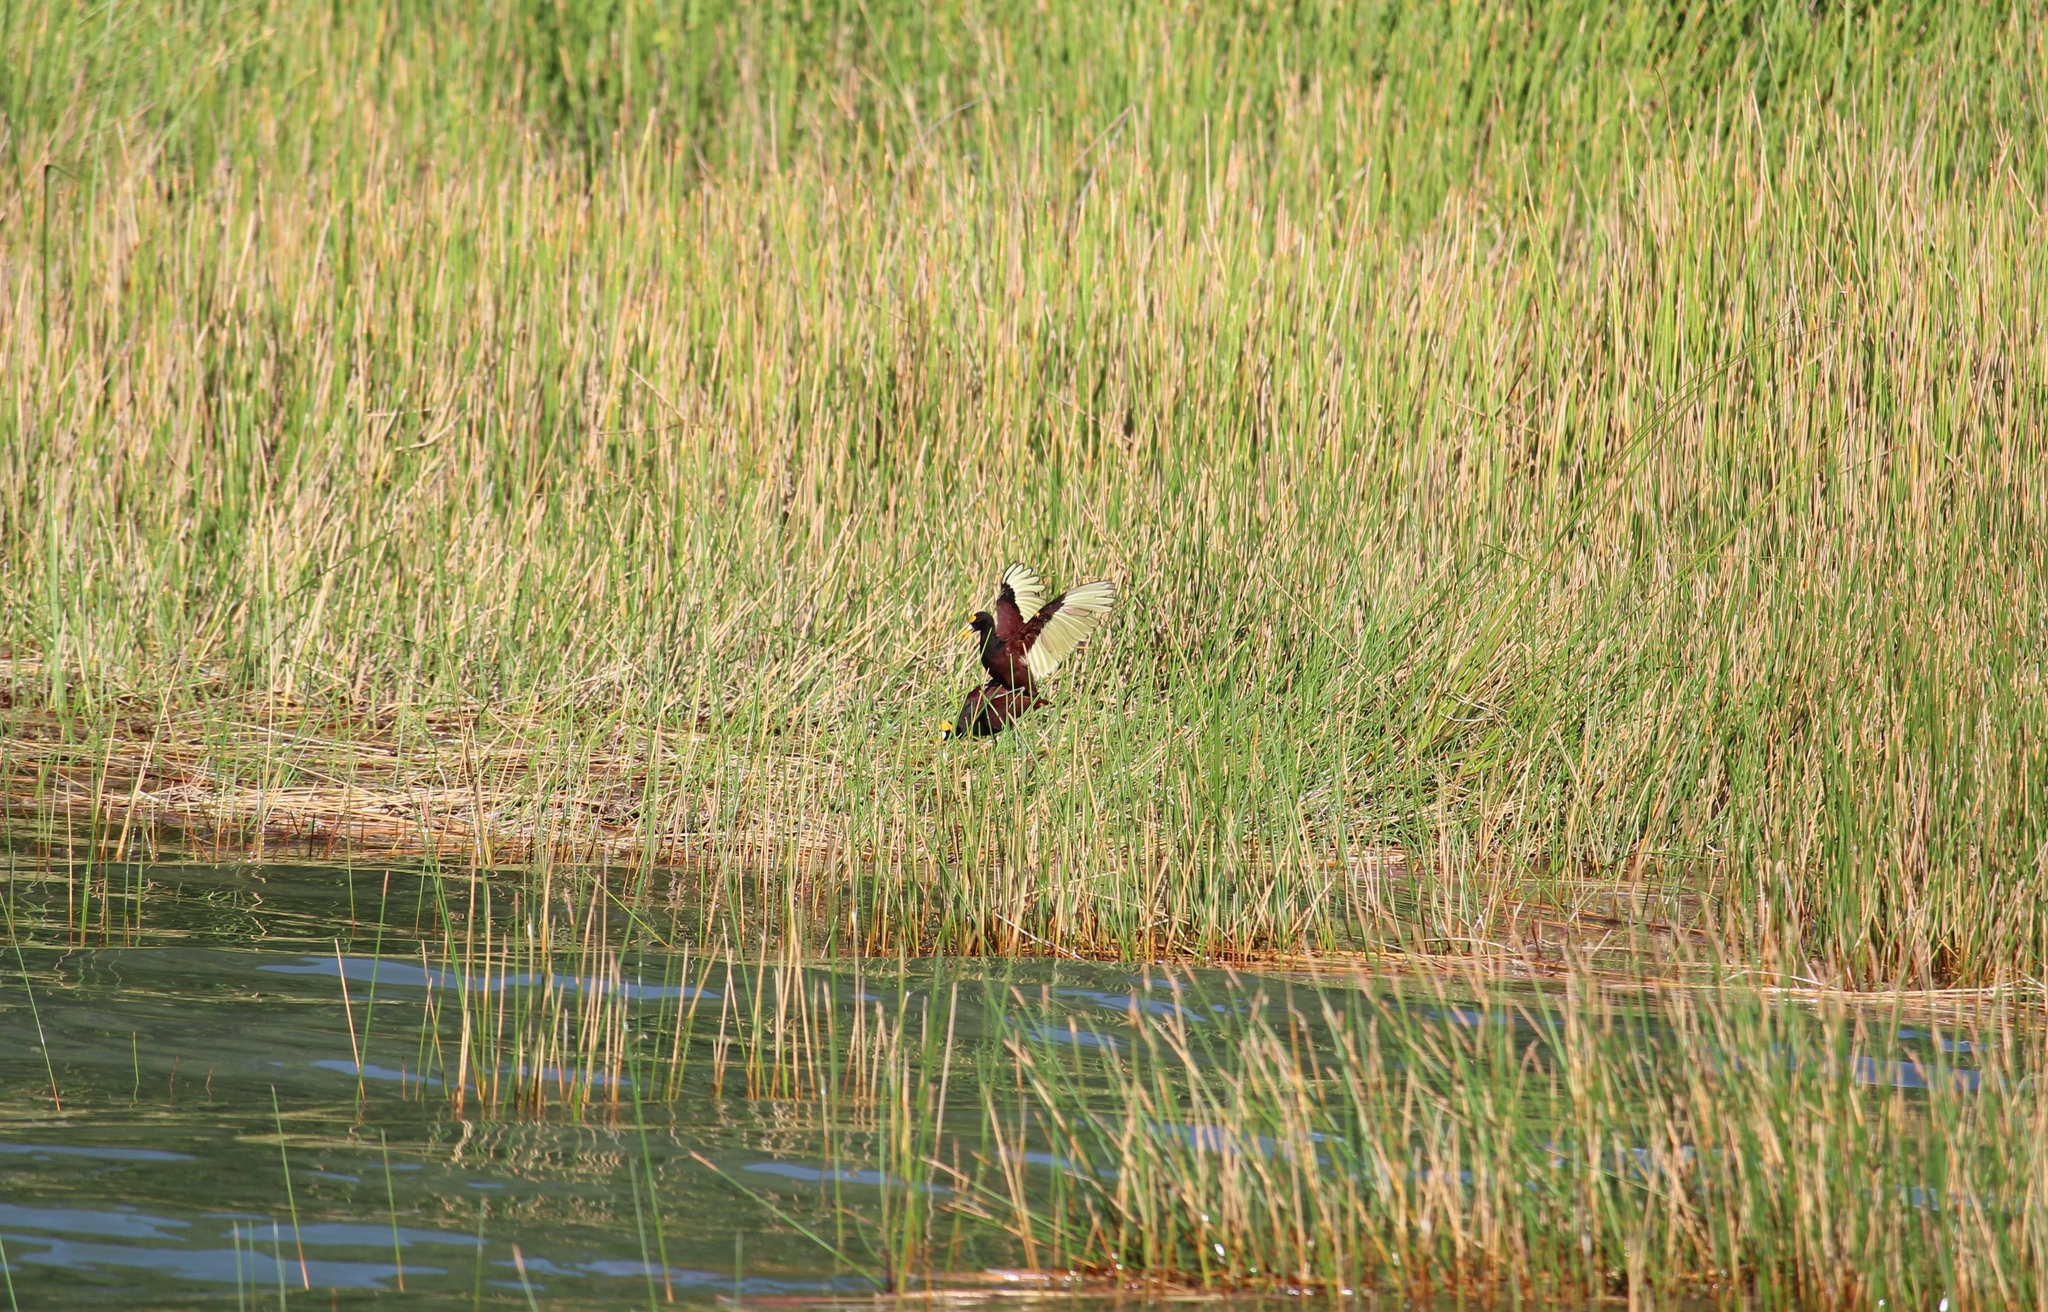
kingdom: Animalia
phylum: Chordata
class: Aves
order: Charadriiformes
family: Jacanidae
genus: Jacana
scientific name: Jacana spinosa
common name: Northern jacana
